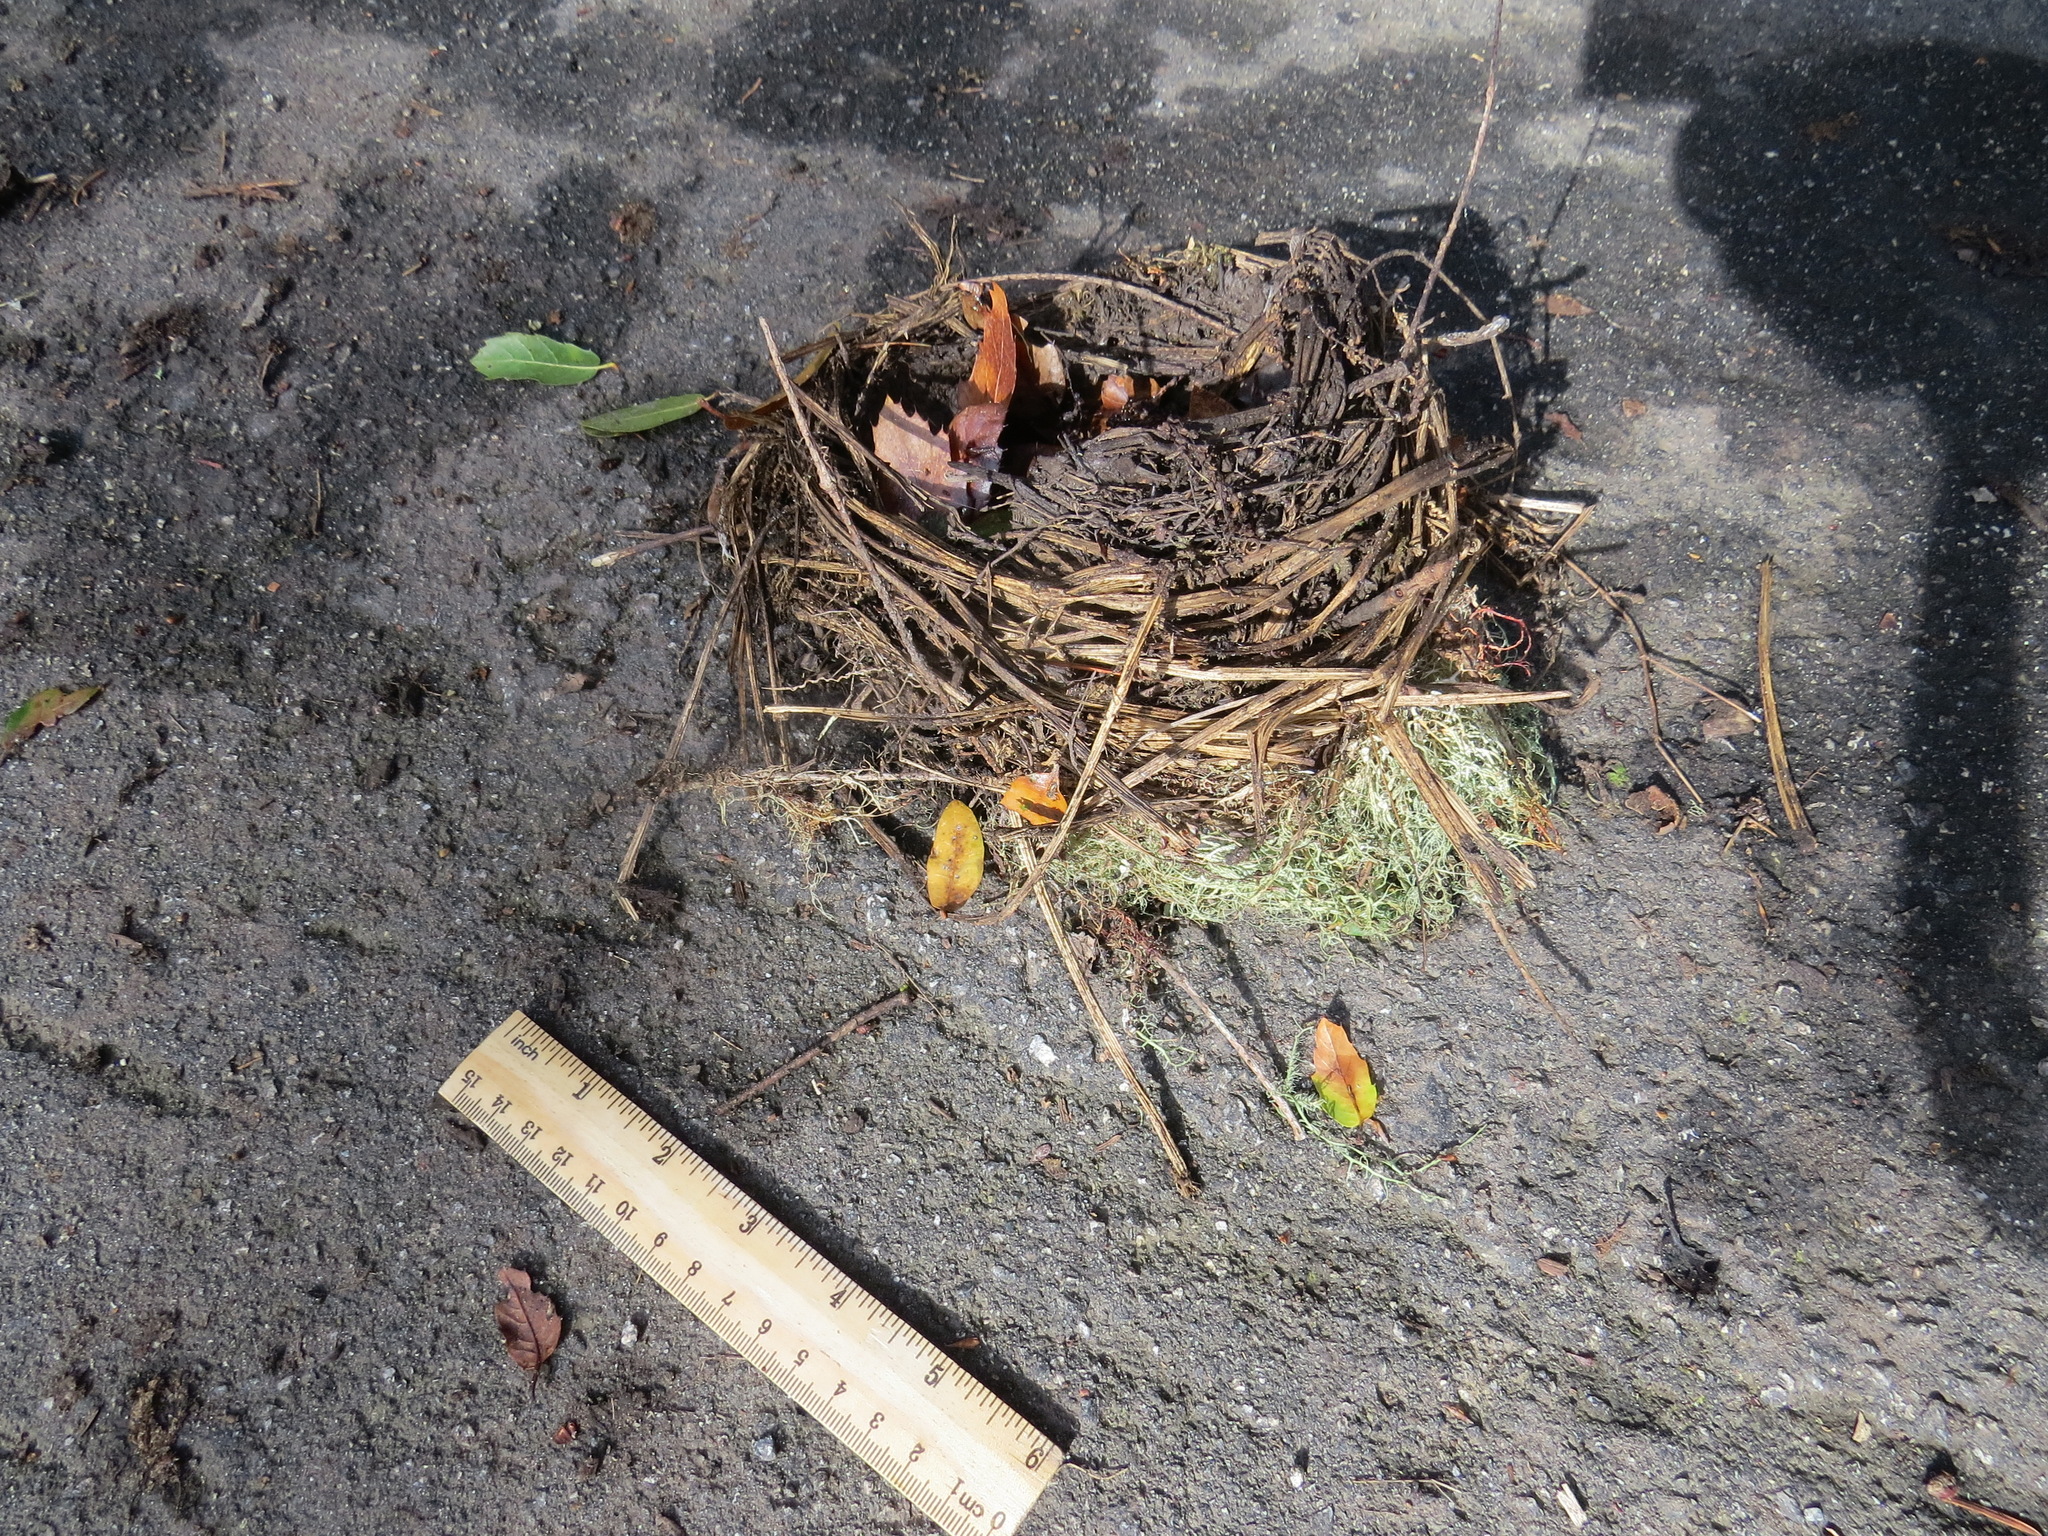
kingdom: Animalia
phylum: Chordata
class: Aves
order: Passeriformes
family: Turdidae
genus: Turdus
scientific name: Turdus migratorius
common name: American robin
